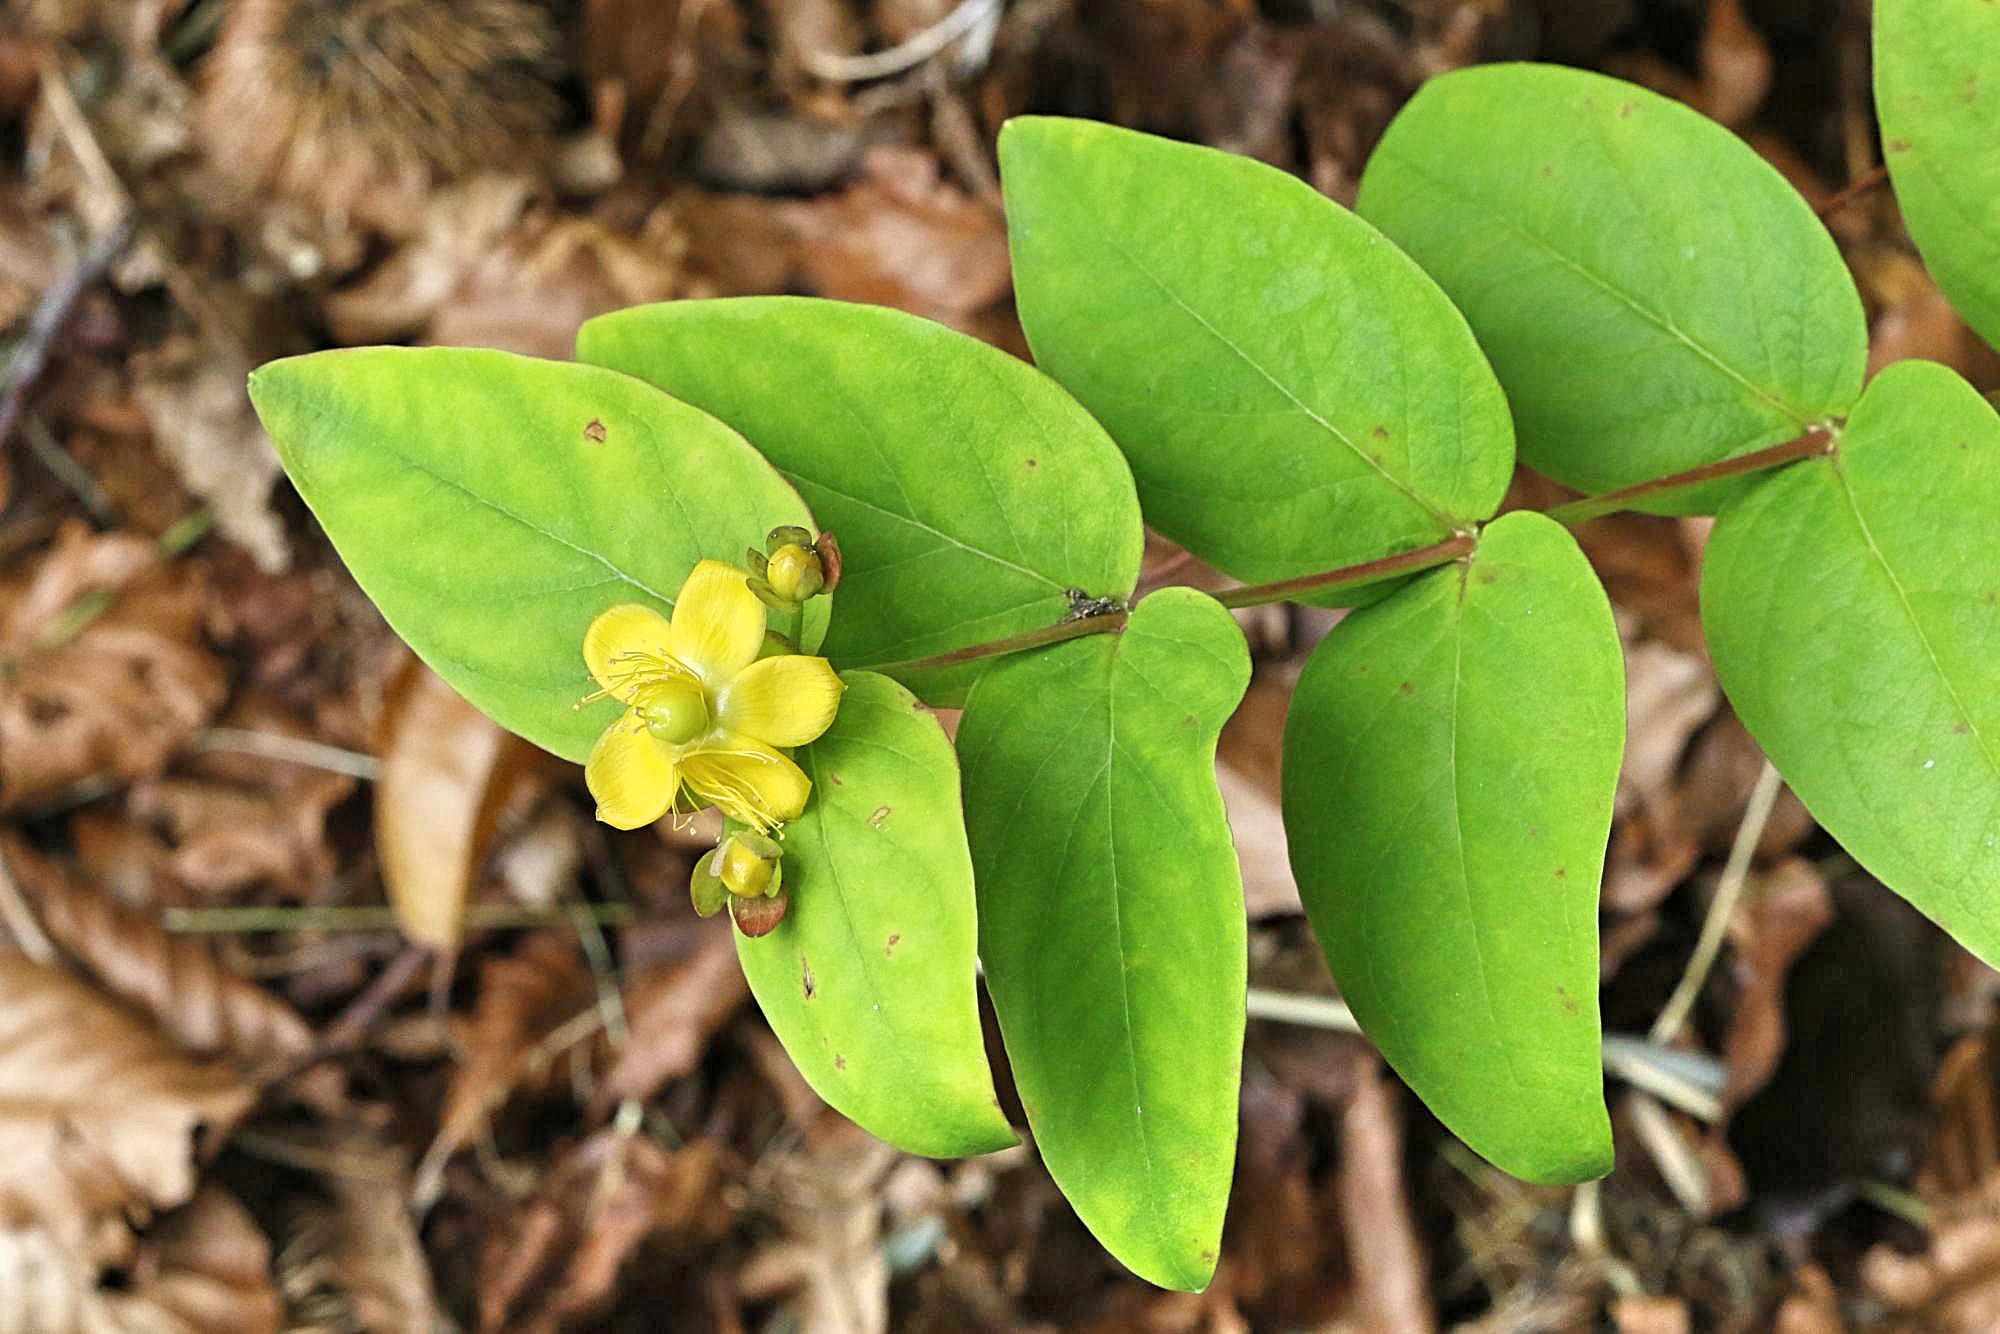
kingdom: Plantae
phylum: Tracheophyta
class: Magnoliopsida
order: Malpighiales
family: Hypericaceae
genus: Hypericum
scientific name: Hypericum androsaemum
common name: Sweet-amber
